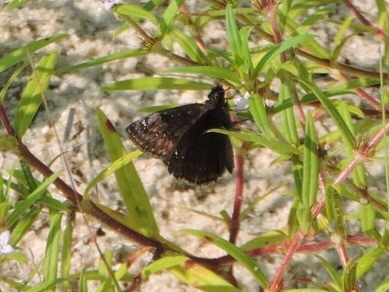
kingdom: Animalia
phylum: Arthropoda
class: Insecta
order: Lepidoptera
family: Hesperiidae
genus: Erynnis
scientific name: Erynnis baptisiae
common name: Wild indigo duskywing
